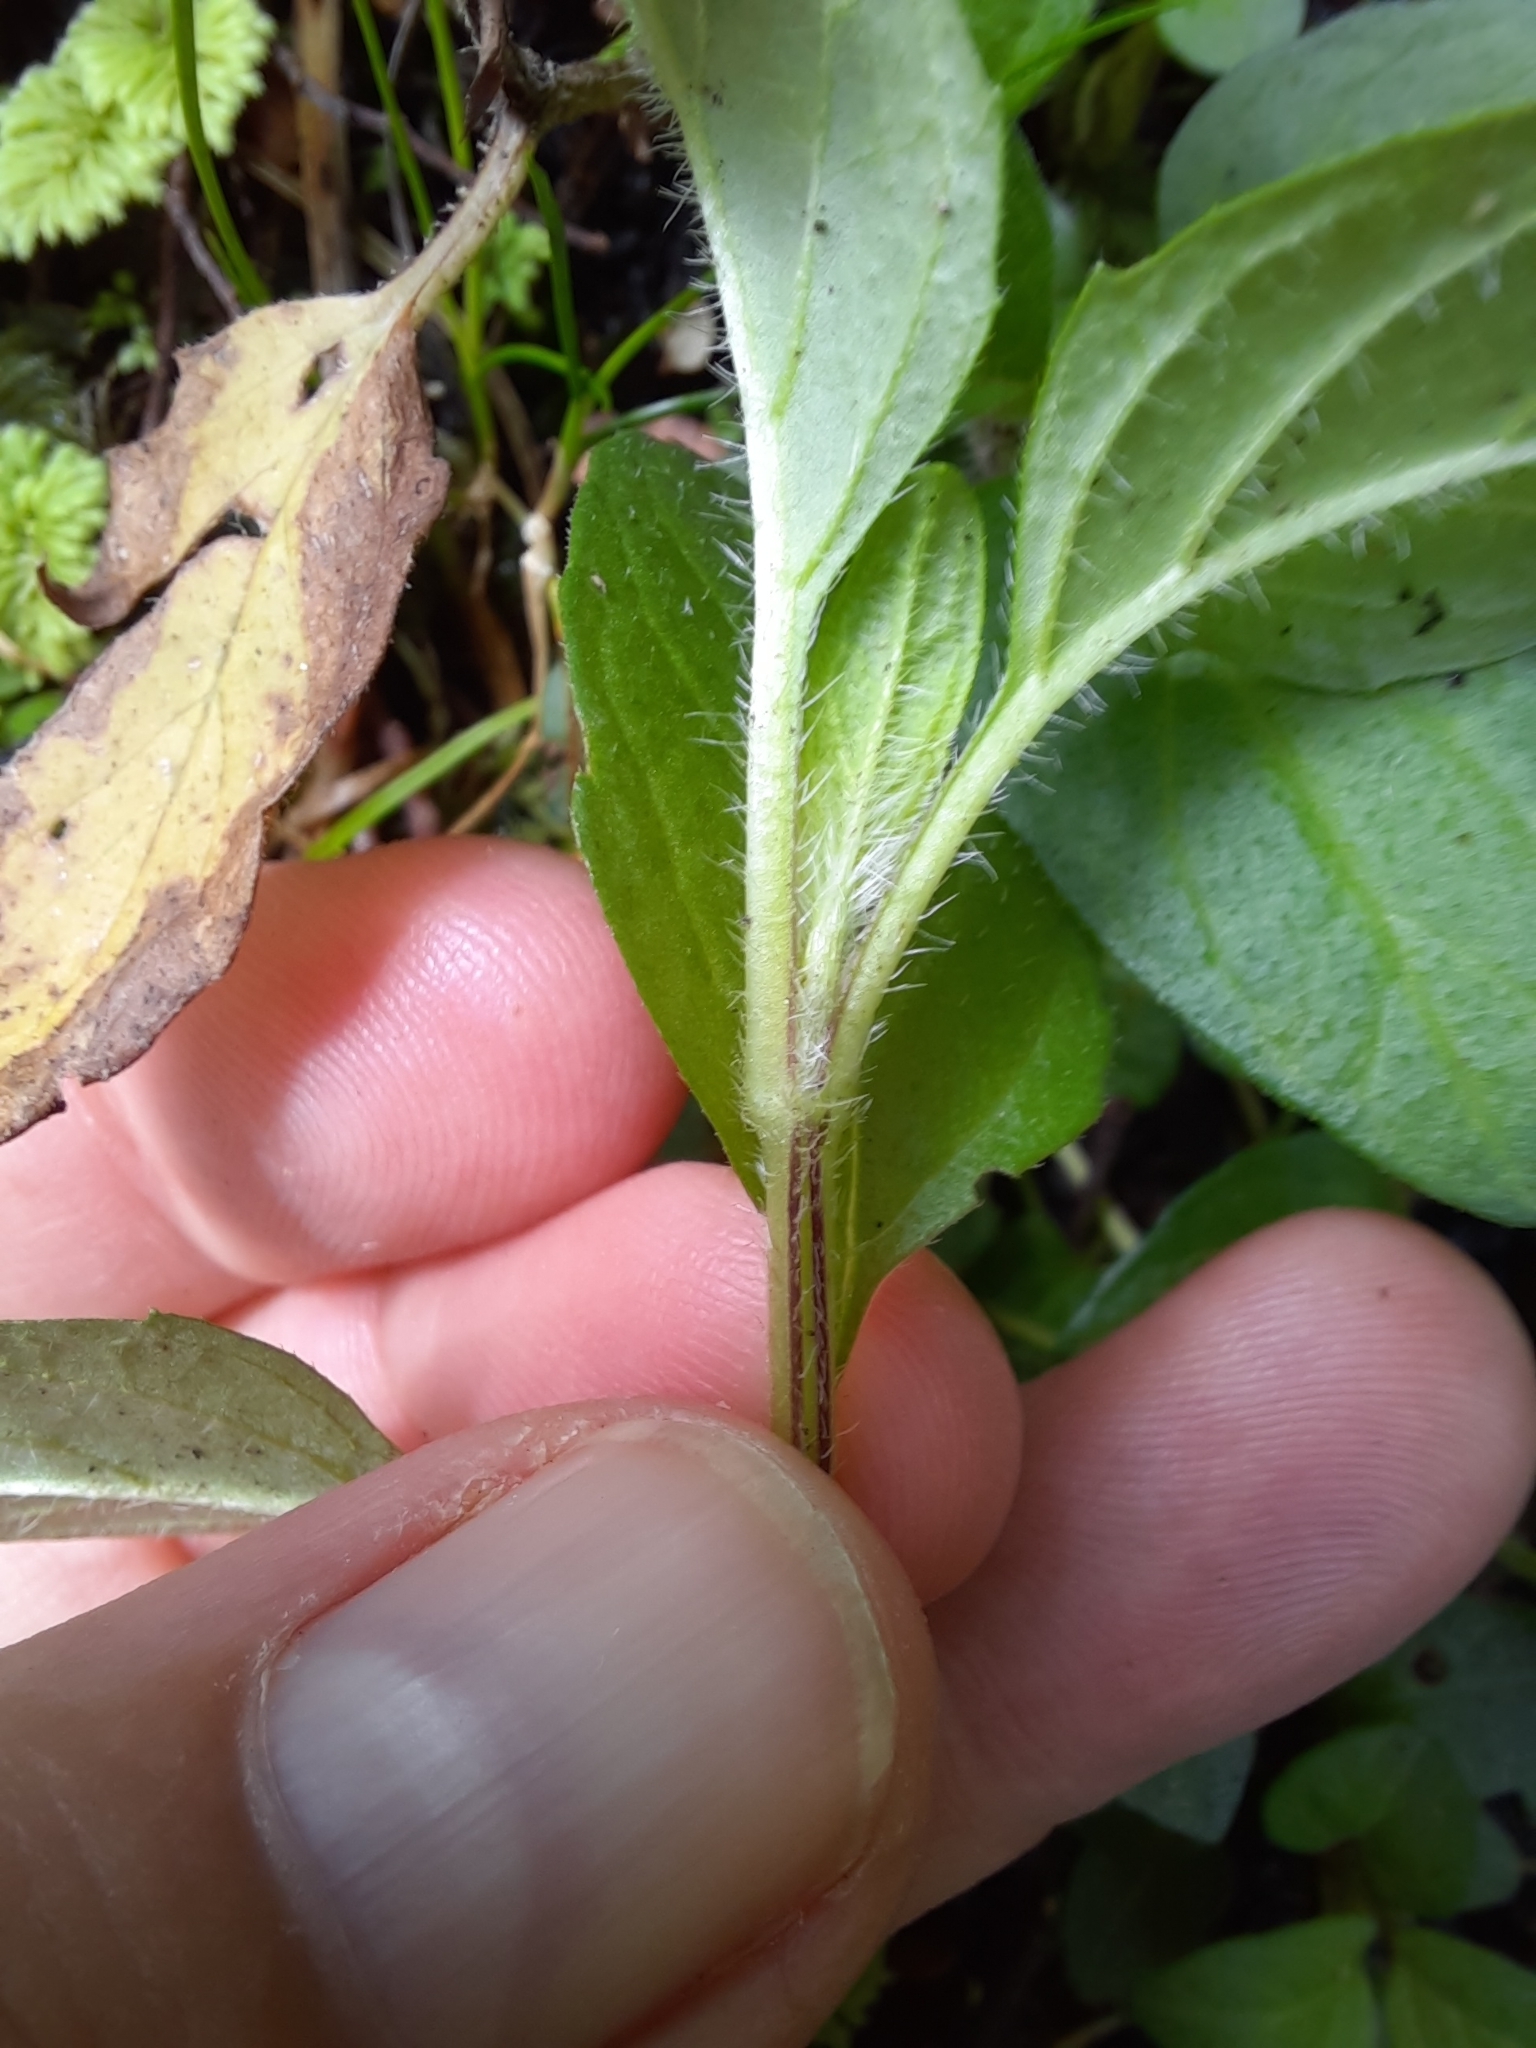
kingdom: Plantae
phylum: Tracheophyta
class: Magnoliopsida
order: Lamiales
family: Lamiaceae
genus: Prunella
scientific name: Prunella vulgaris
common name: Heal-all
